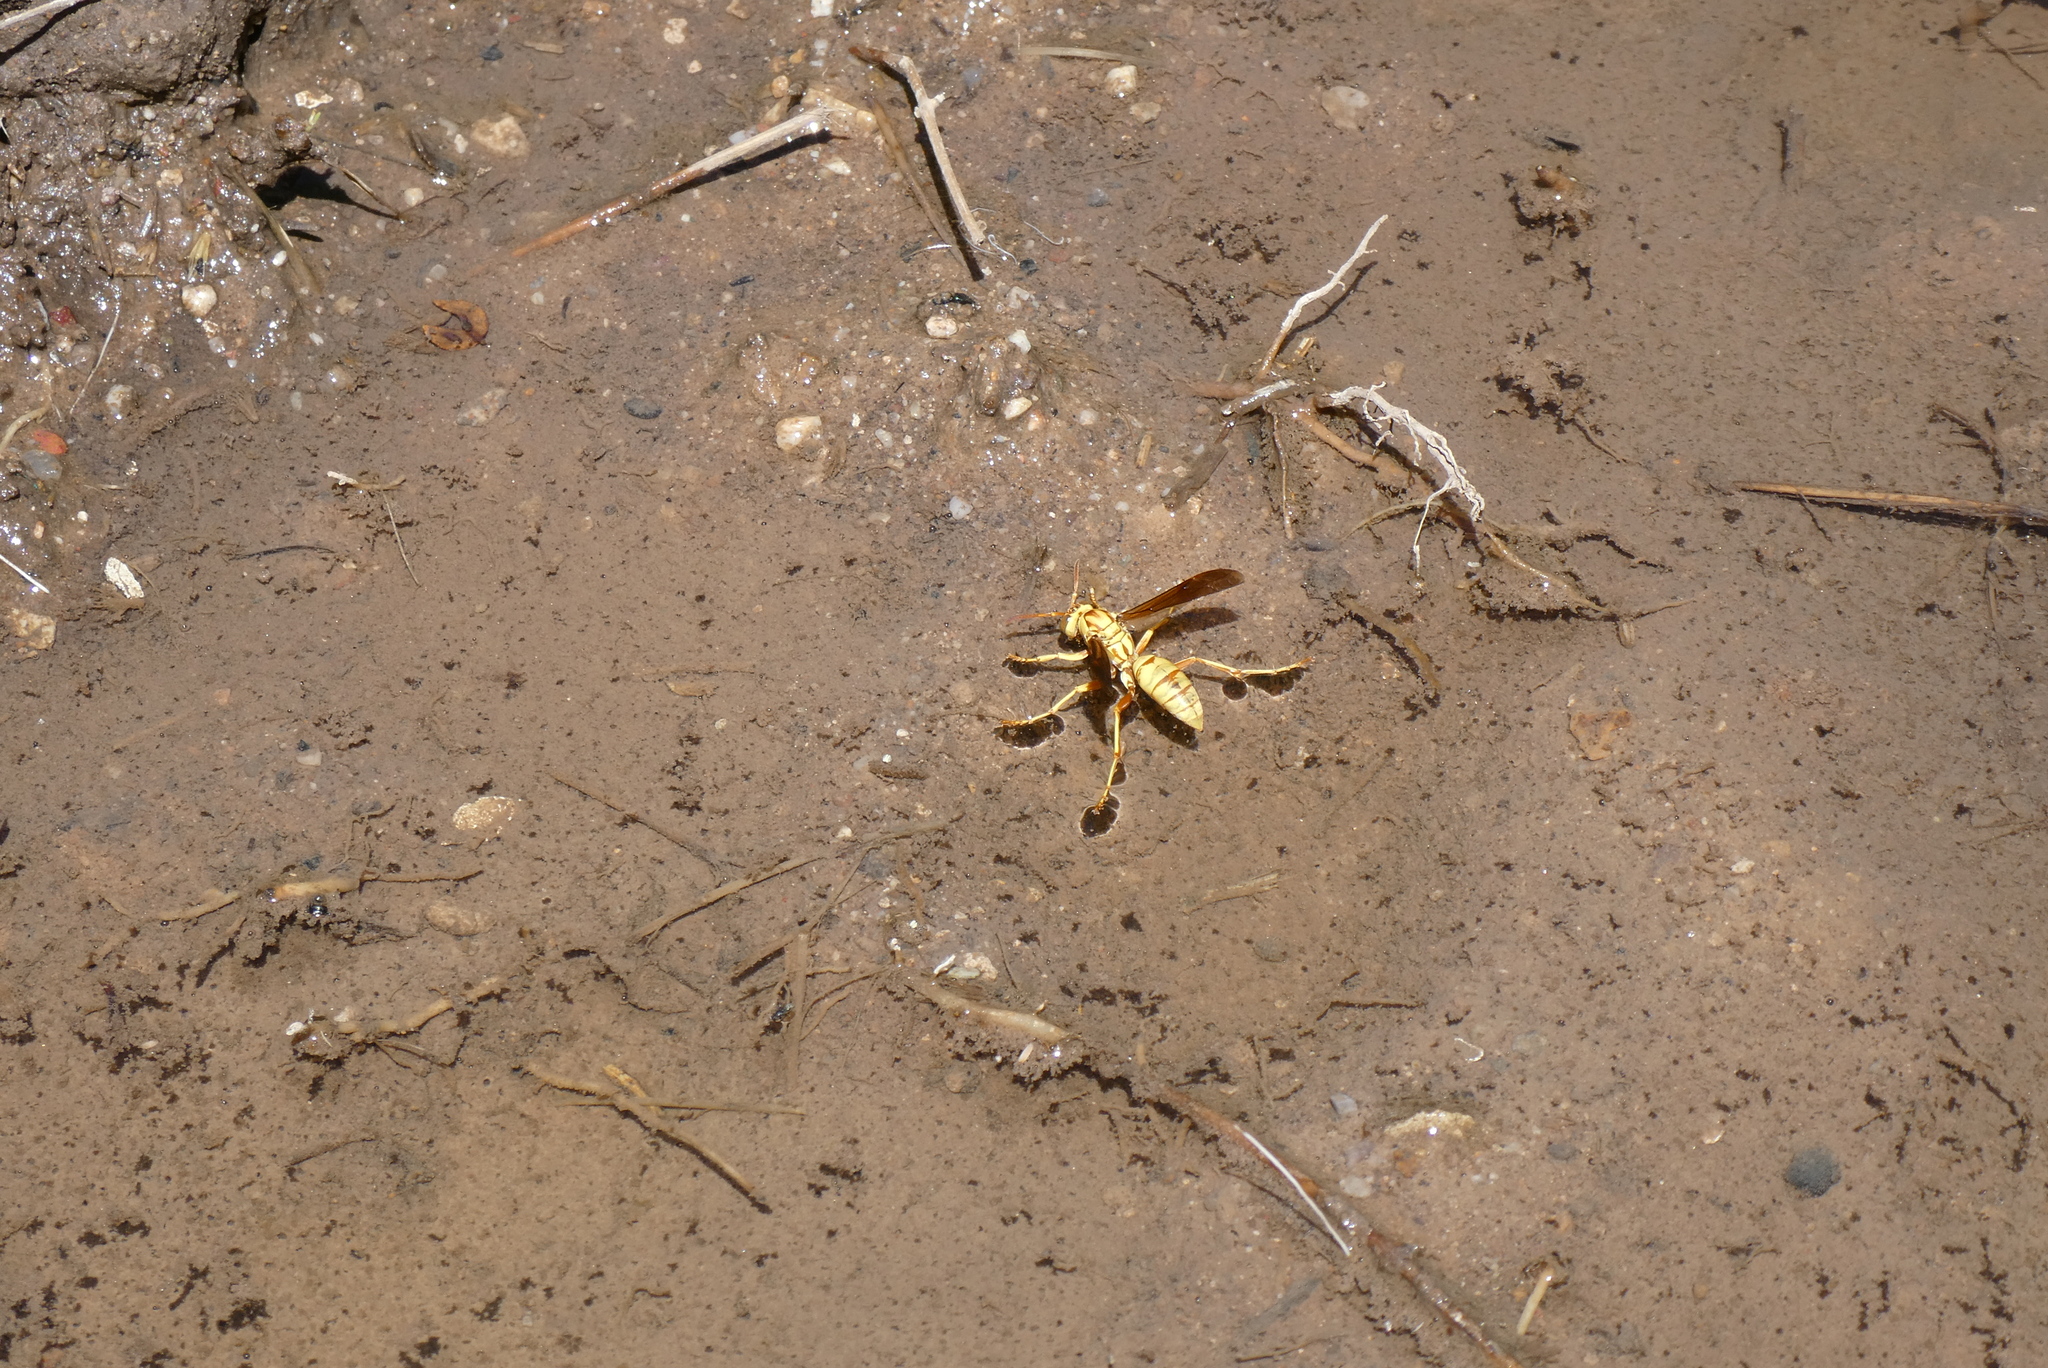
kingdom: Animalia
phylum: Arthropoda
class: Insecta
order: Hymenoptera
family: Eumenidae
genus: Polistes
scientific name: Polistes aurifer
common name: Paper wasp
